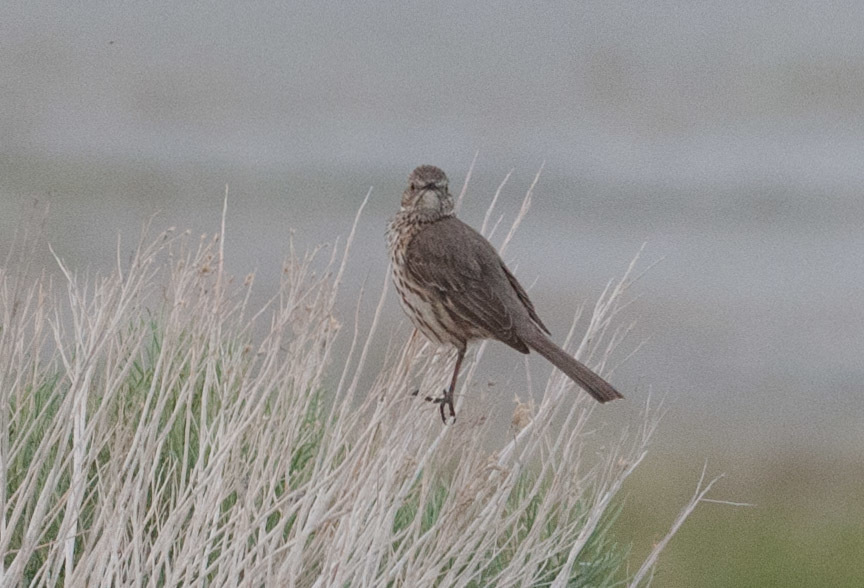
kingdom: Animalia
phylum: Chordata
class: Aves
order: Passeriformes
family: Mimidae
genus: Oreoscoptes
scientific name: Oreoscoptes montanus
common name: Sage thrasher
